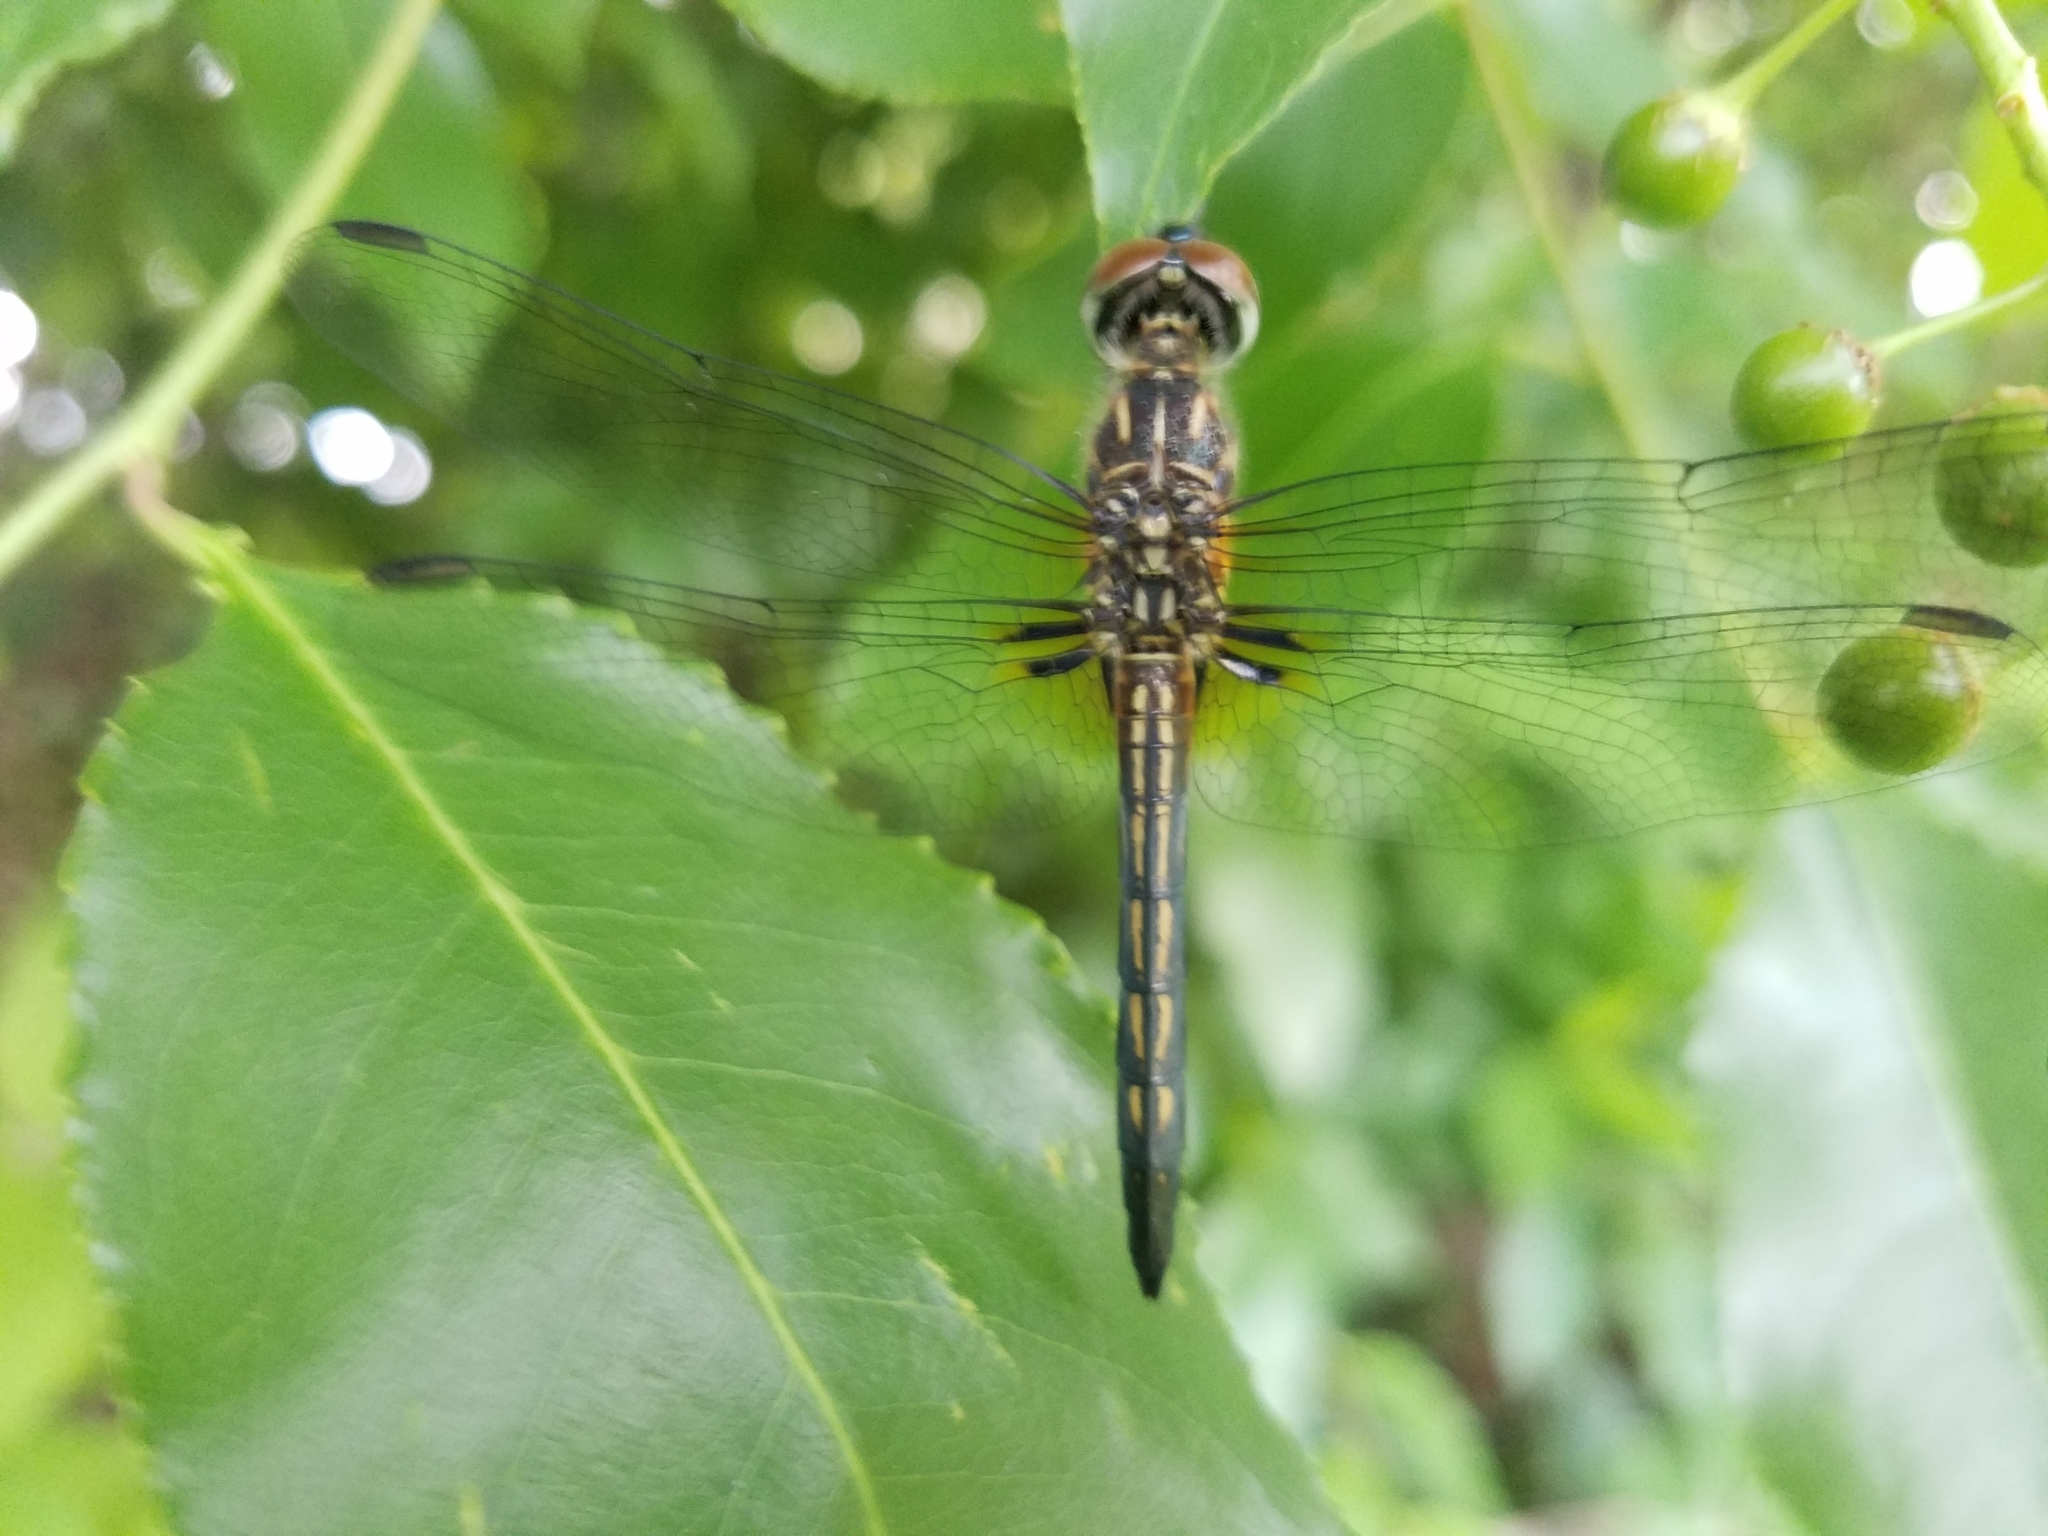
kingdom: Animalia
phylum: Arthropoda
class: Insecta
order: Odonata
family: Libellulidae
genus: Pachydiplax
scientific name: Pachydiplax longipennis
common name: Blue dasher
